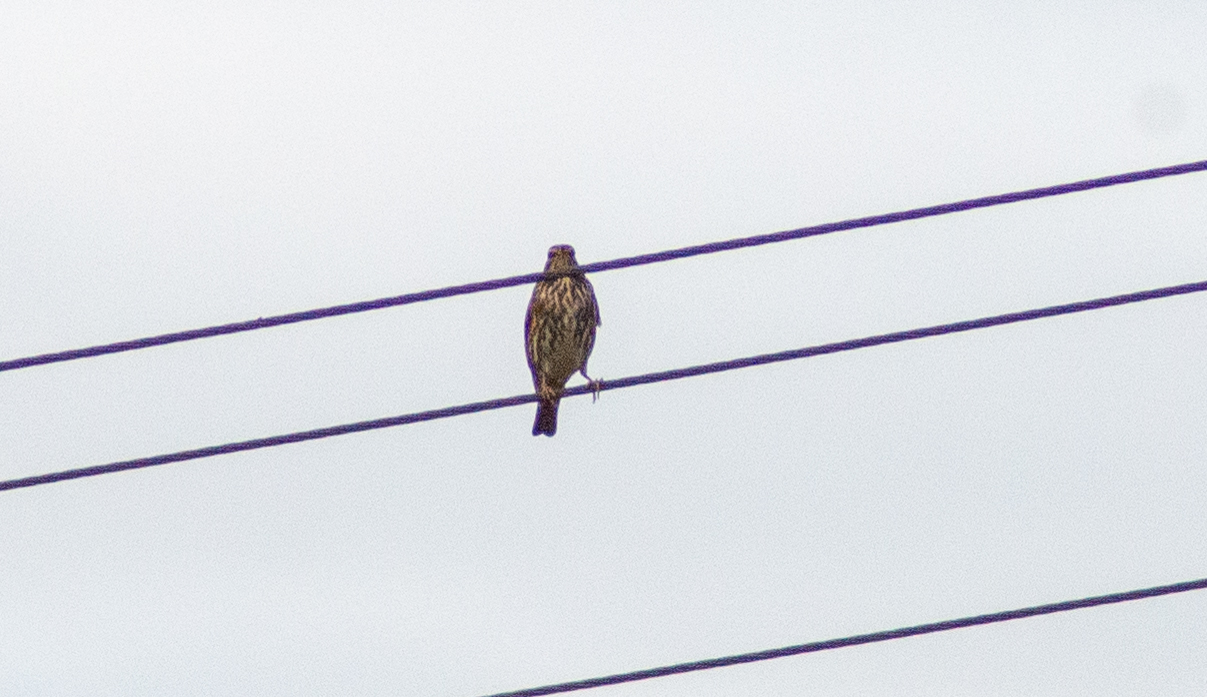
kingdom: Animalia
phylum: Chordata
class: Aves
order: Passeriformes
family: Turdidae
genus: Turdus
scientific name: Turdus iliacus
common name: Redwing
